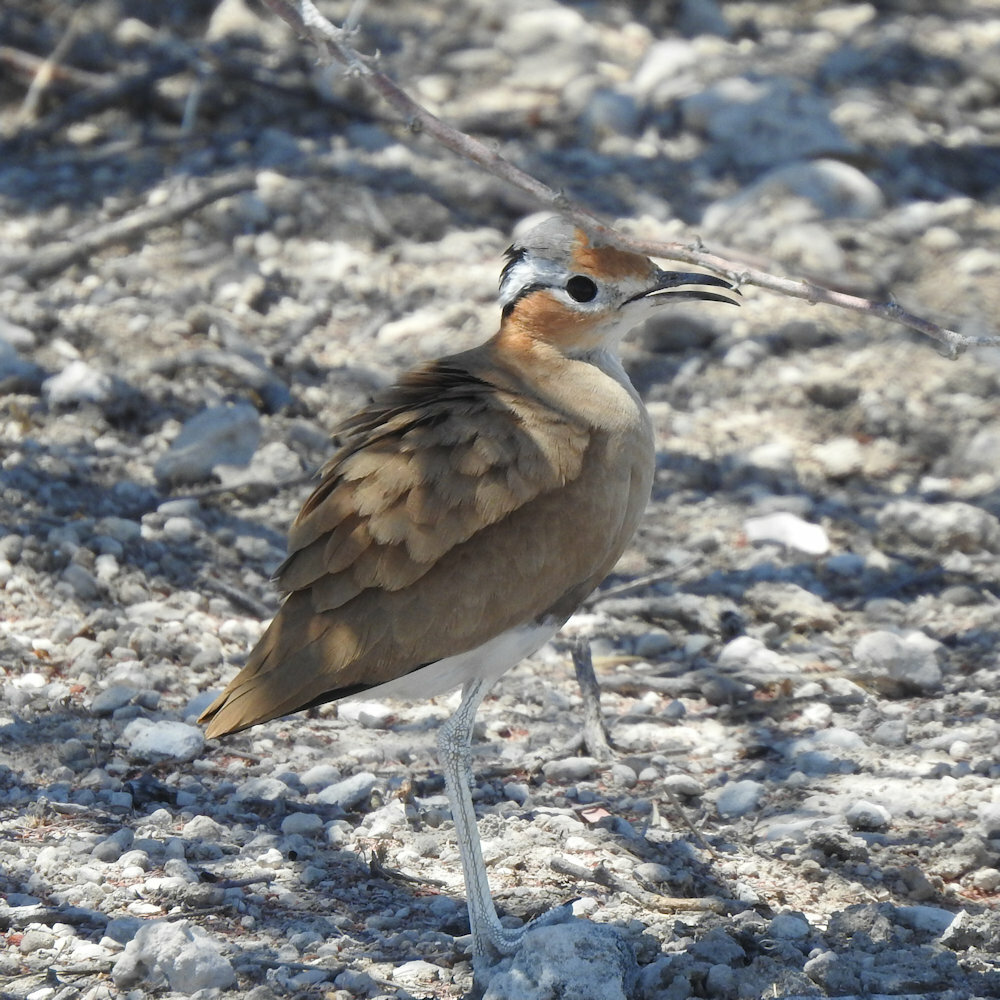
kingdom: Animalia
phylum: Chordata
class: Aves
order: Charadriiformes
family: Glareolidae
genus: Cursorius
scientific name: Cursorius rufus
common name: Burchell's courser
